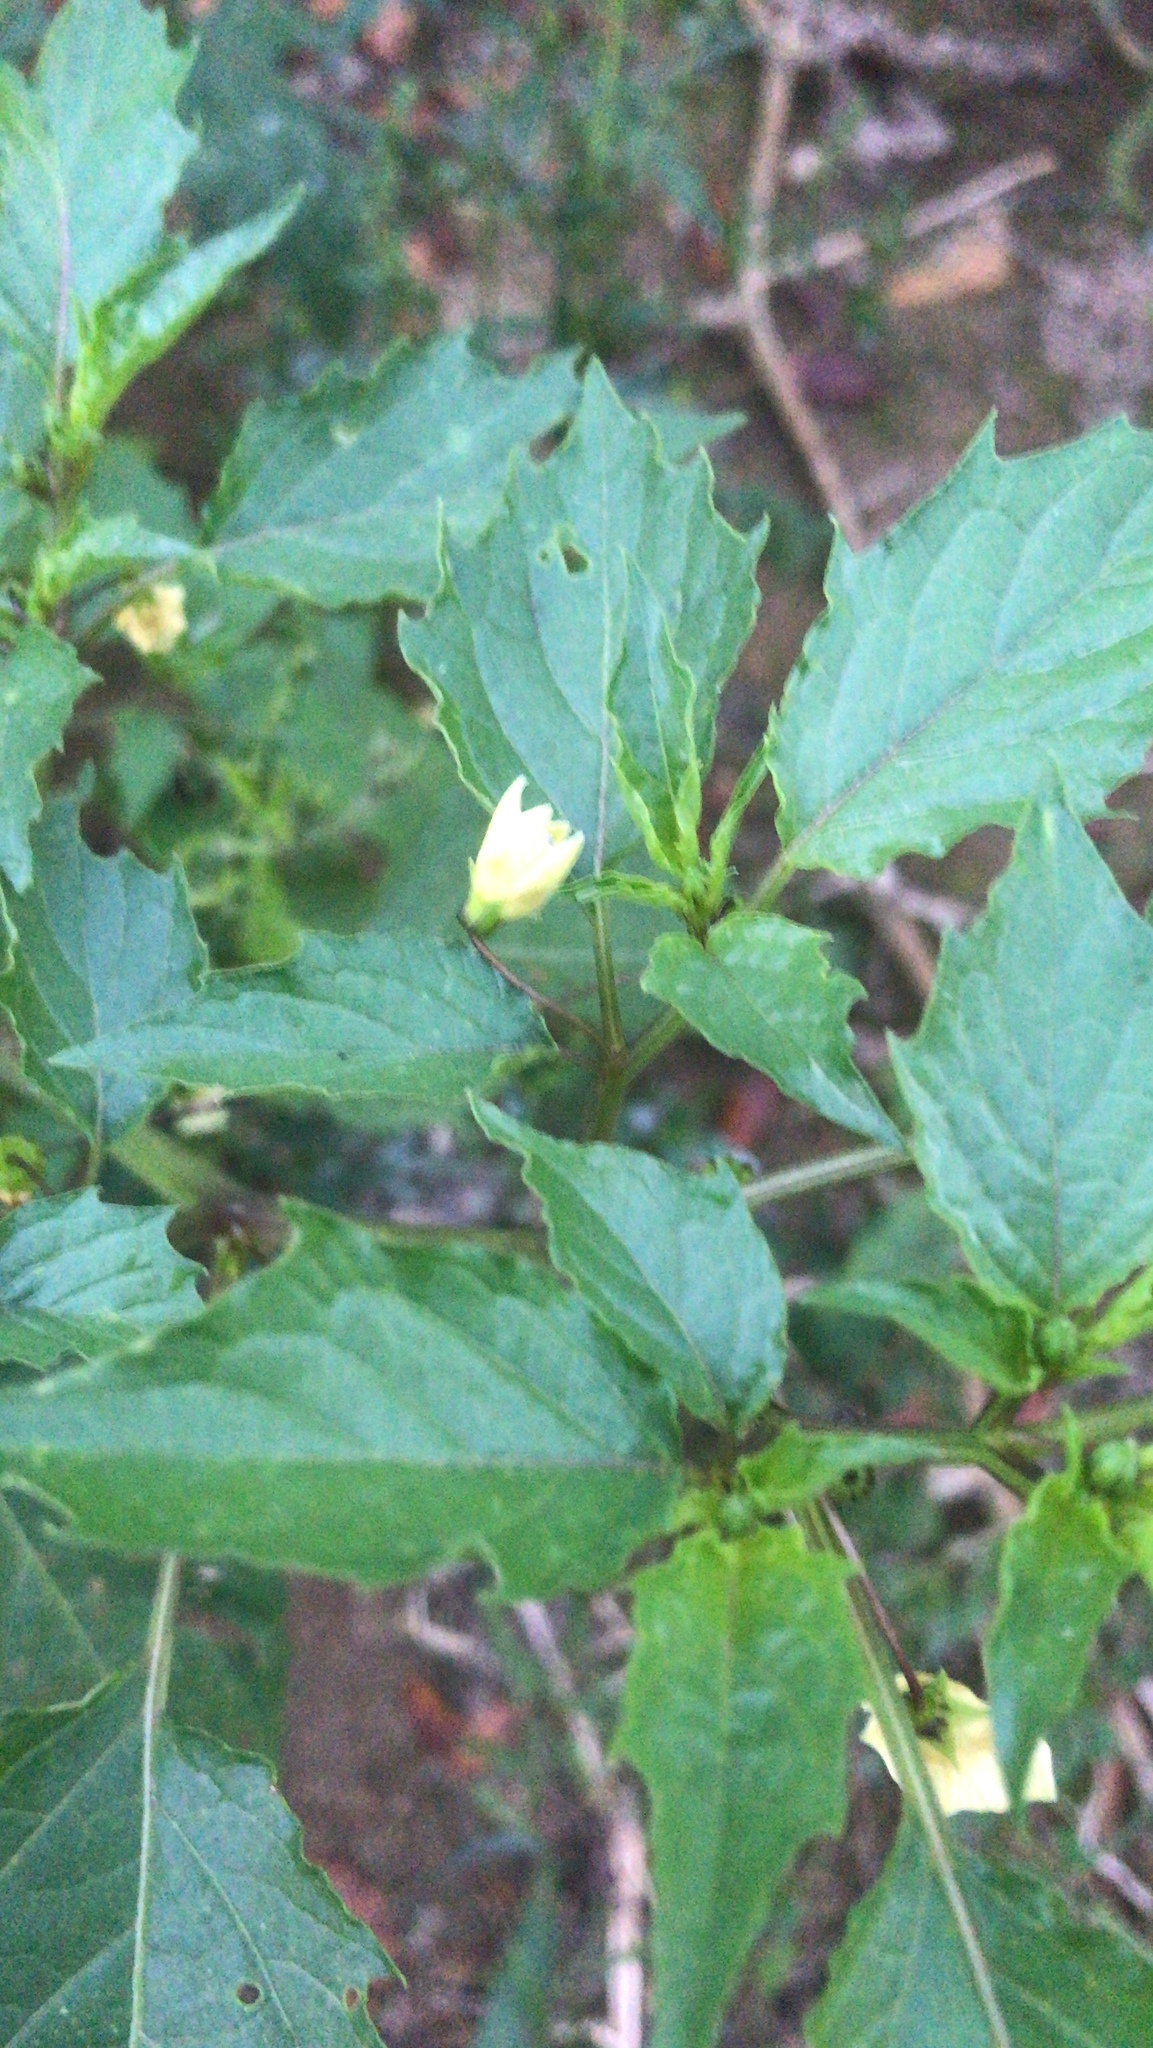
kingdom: Plantae
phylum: Tracheophyta
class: Magnoliopsida
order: Solanales
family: Solanaceae
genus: Physalis
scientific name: Physalis angulata
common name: Angular winter-cherry
